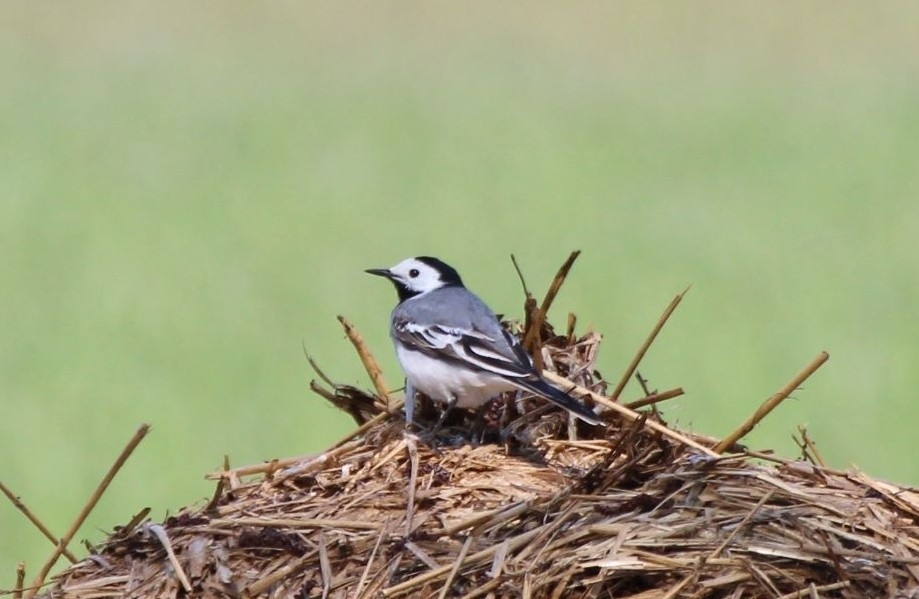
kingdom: Animalia
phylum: Chordata
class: Aves
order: Passeriformes
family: Motacillidae
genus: Motacilla
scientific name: Motacilla alba
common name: White wagtail
